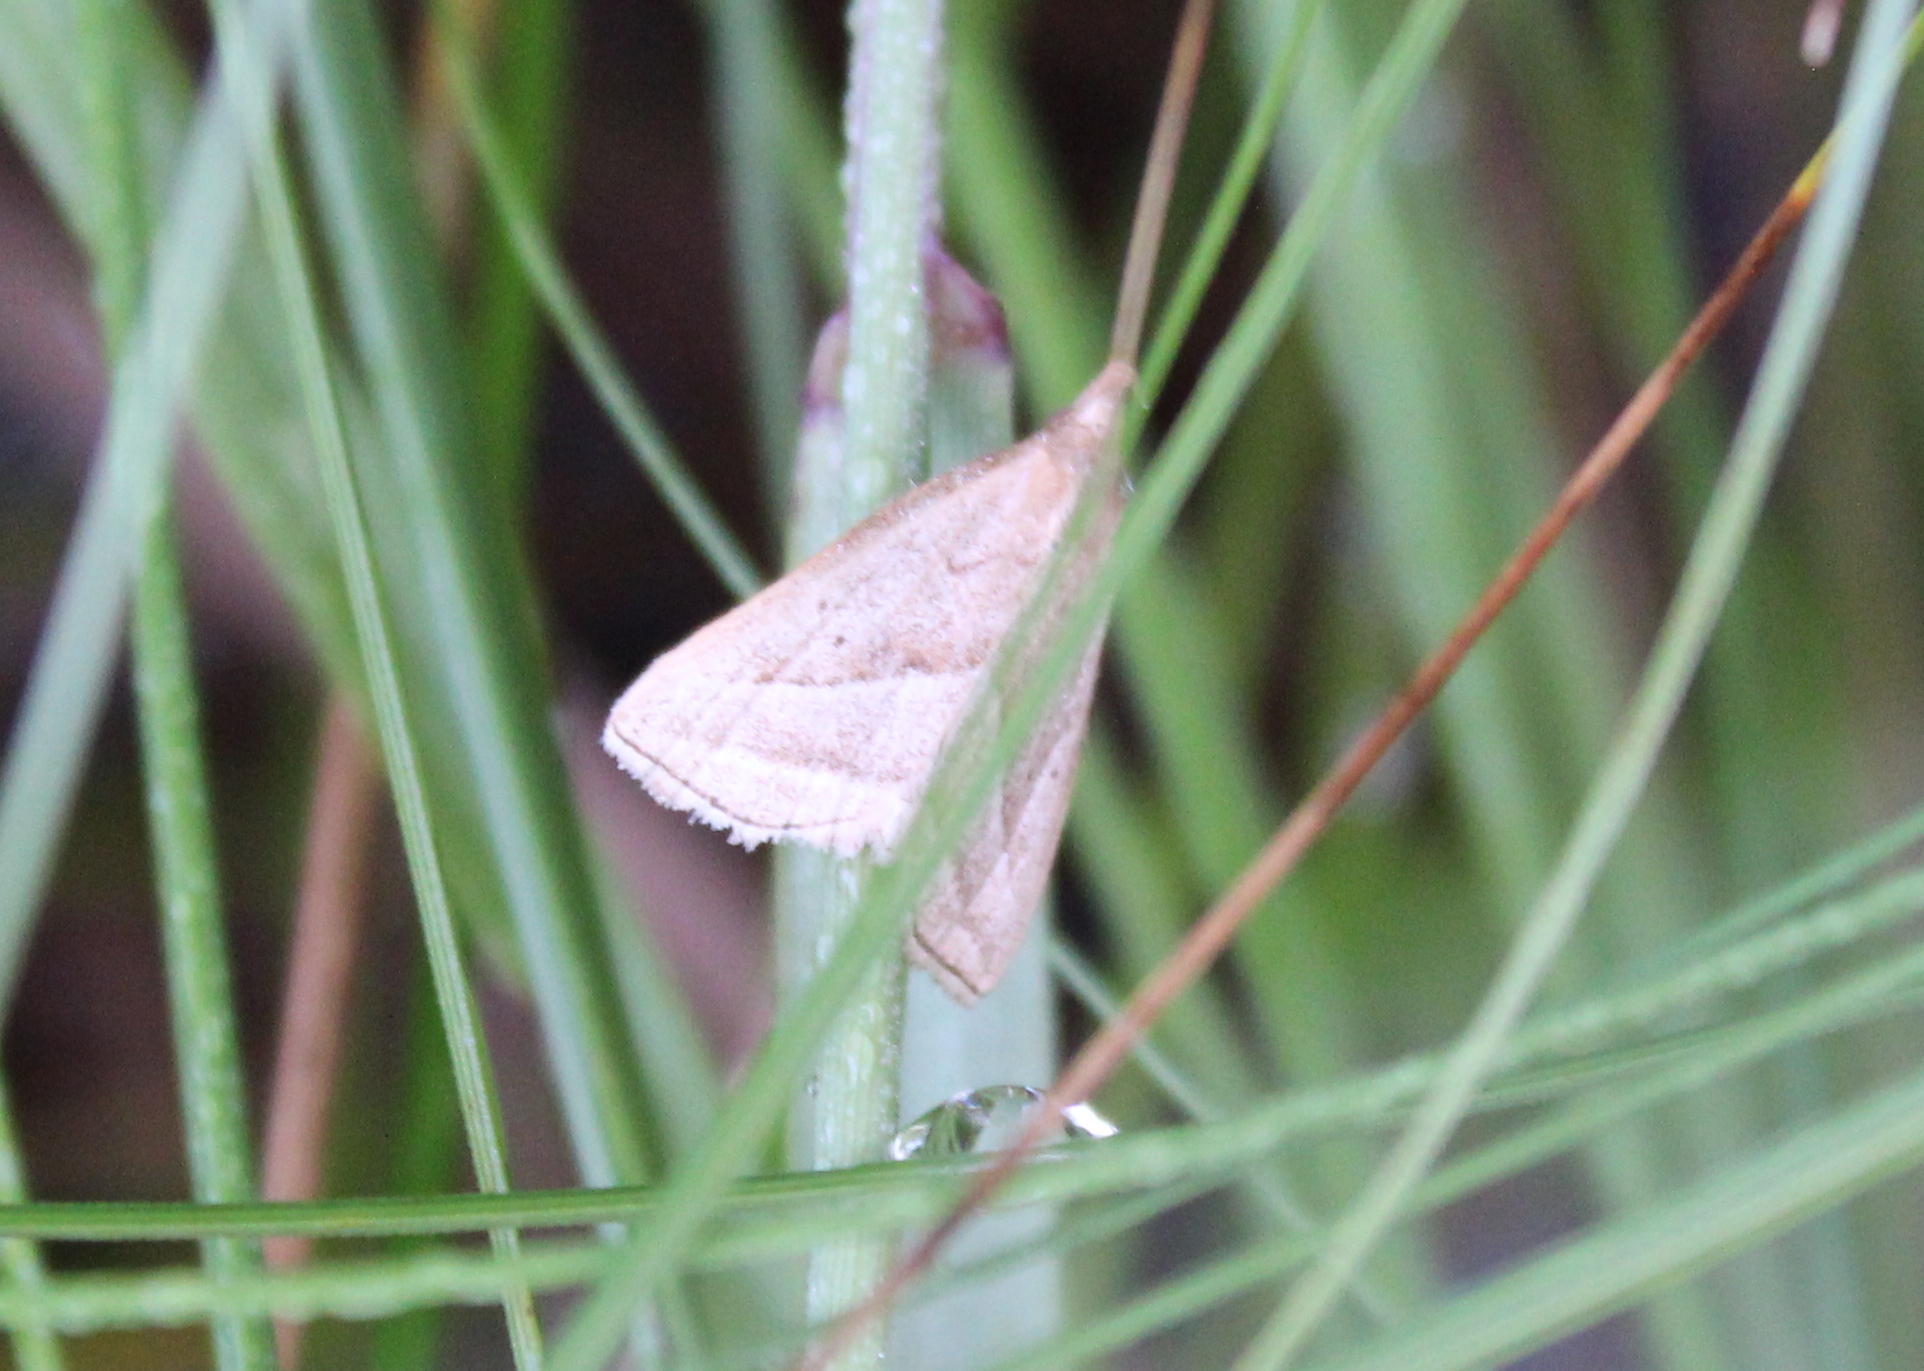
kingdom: Animalia
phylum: Arthropoda
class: Insecta
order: Lepidoptera
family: Erebidae
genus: Macrochilo
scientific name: Macrochilo absorptalis
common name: Slant-lined owlet
